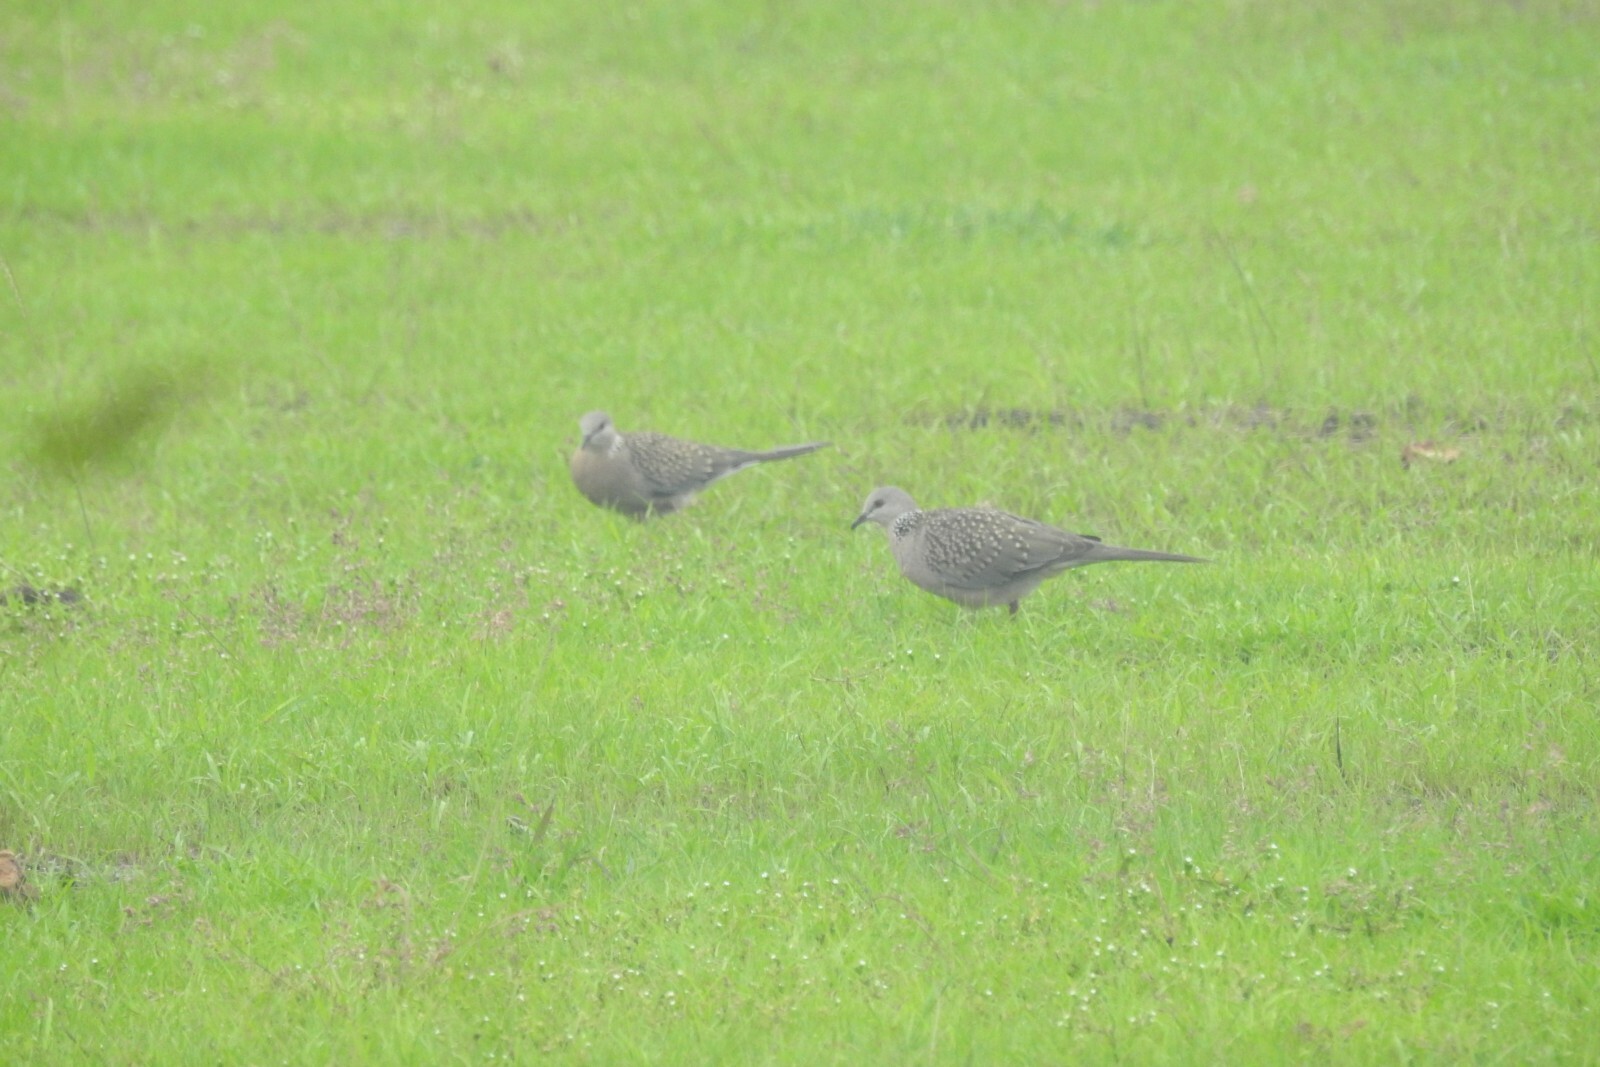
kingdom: Animalia
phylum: Chordata
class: Aves
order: Columbiformes
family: Columbidae
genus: Spilopelia
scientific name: Spilopelia chinensis
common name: Spotted dove
